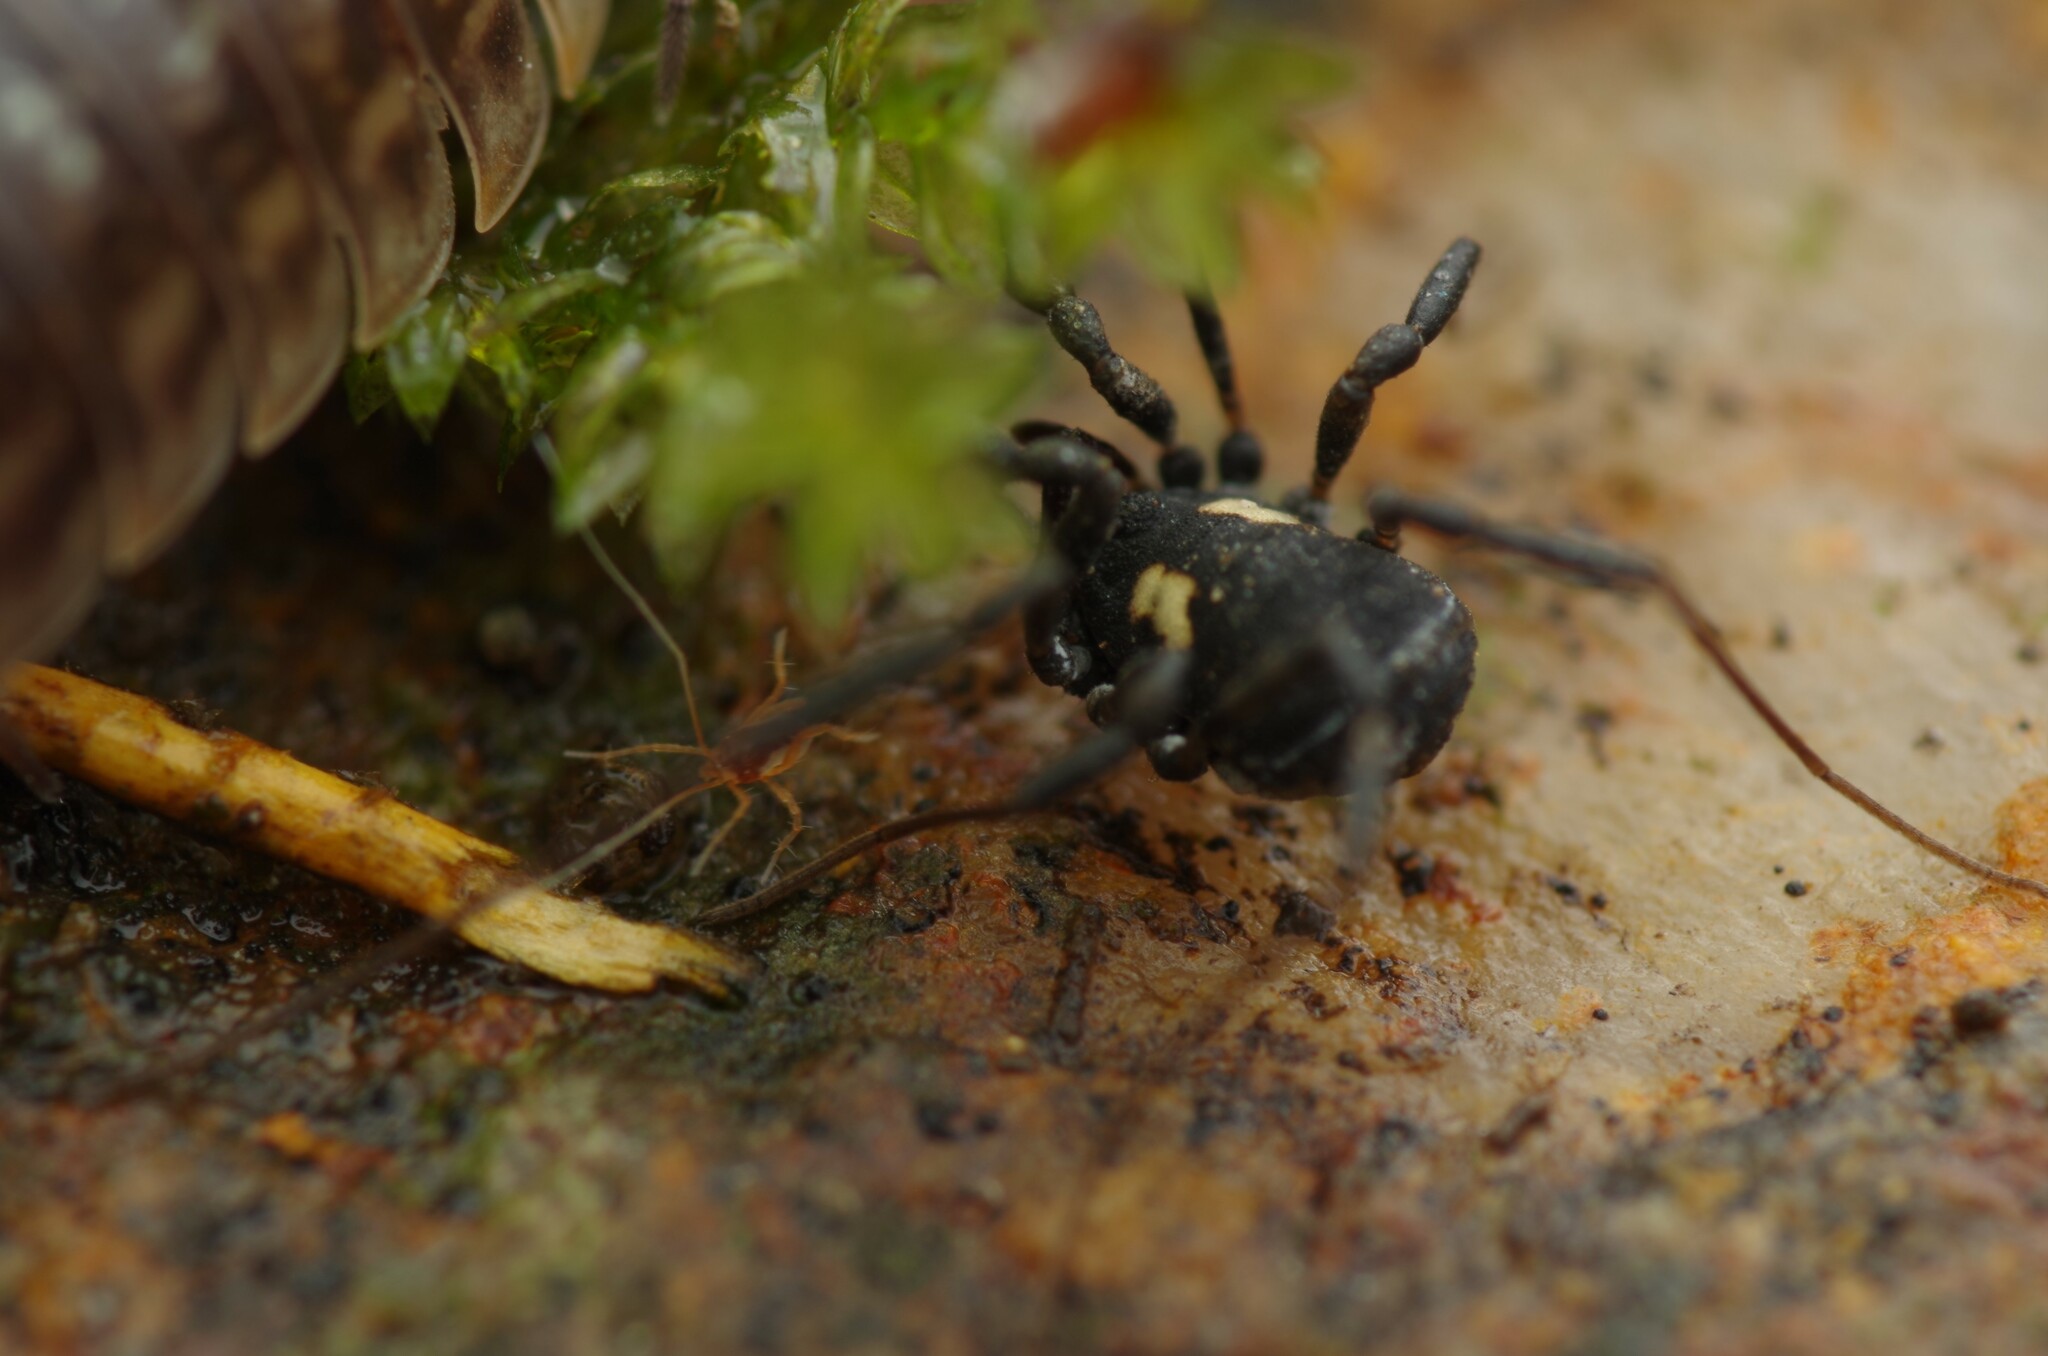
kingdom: Animalia
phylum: Arthropoda
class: Arachnida
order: Opiliones
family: Nemastomatidae
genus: Nemastoma
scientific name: Nemastoma bimaculatum
